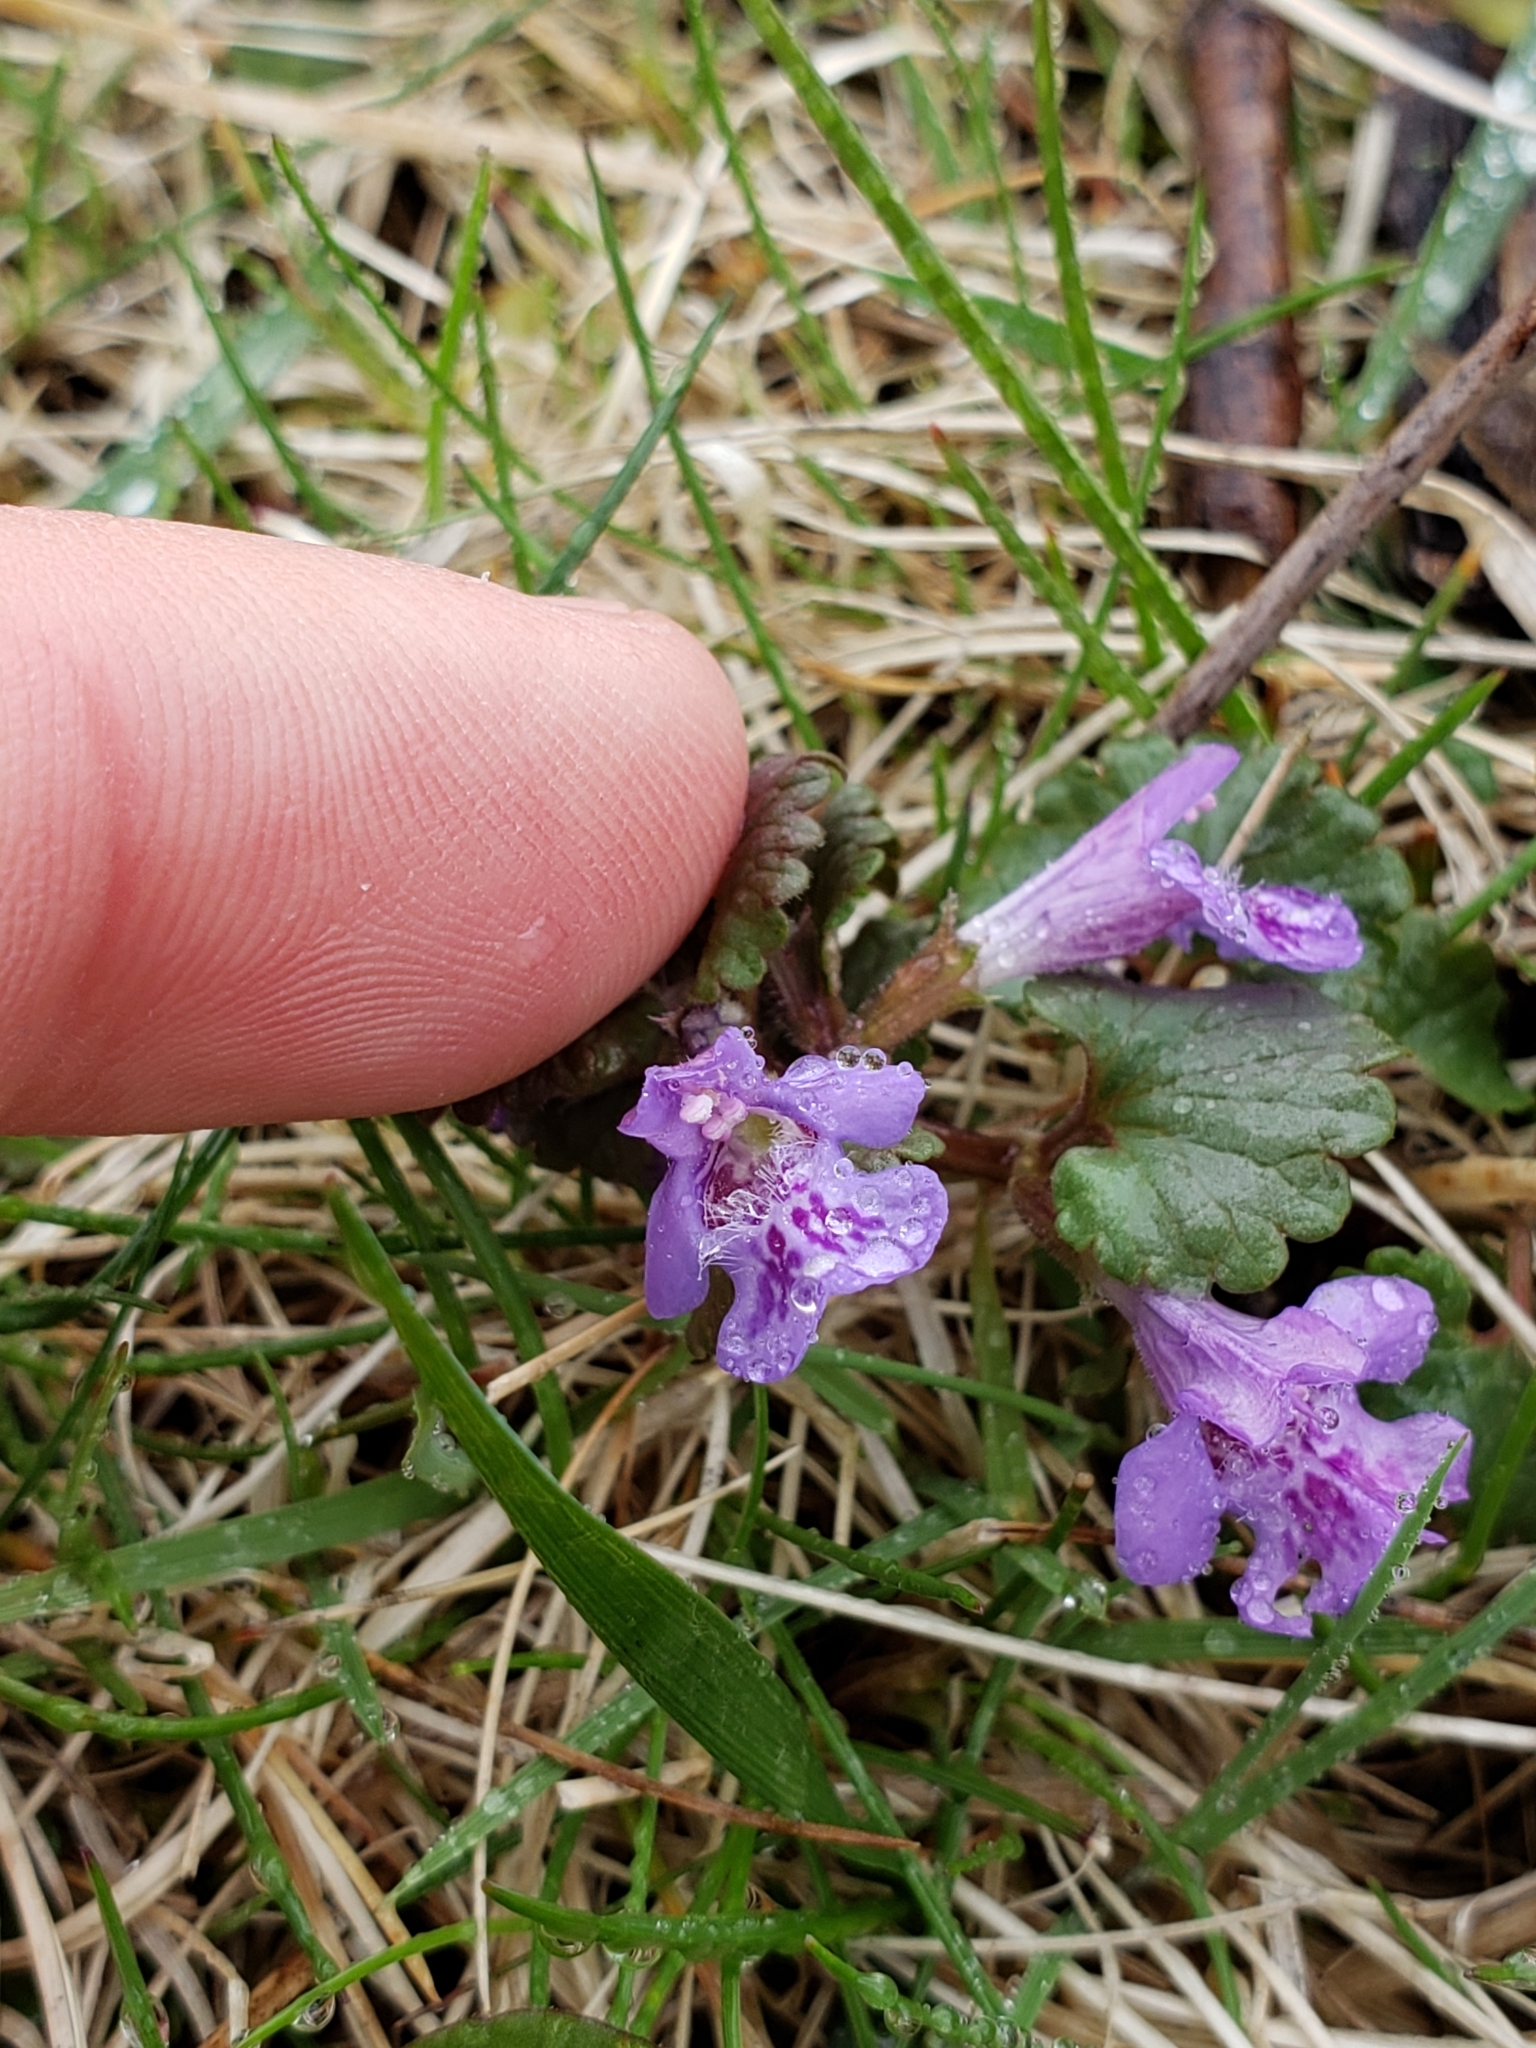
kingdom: Plantae
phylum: Tracheophyta
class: Magnoliopsida
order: Lamiales
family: Lamiaceae
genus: Glechoma
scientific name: Glechoma hederacea
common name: Ground ivy
